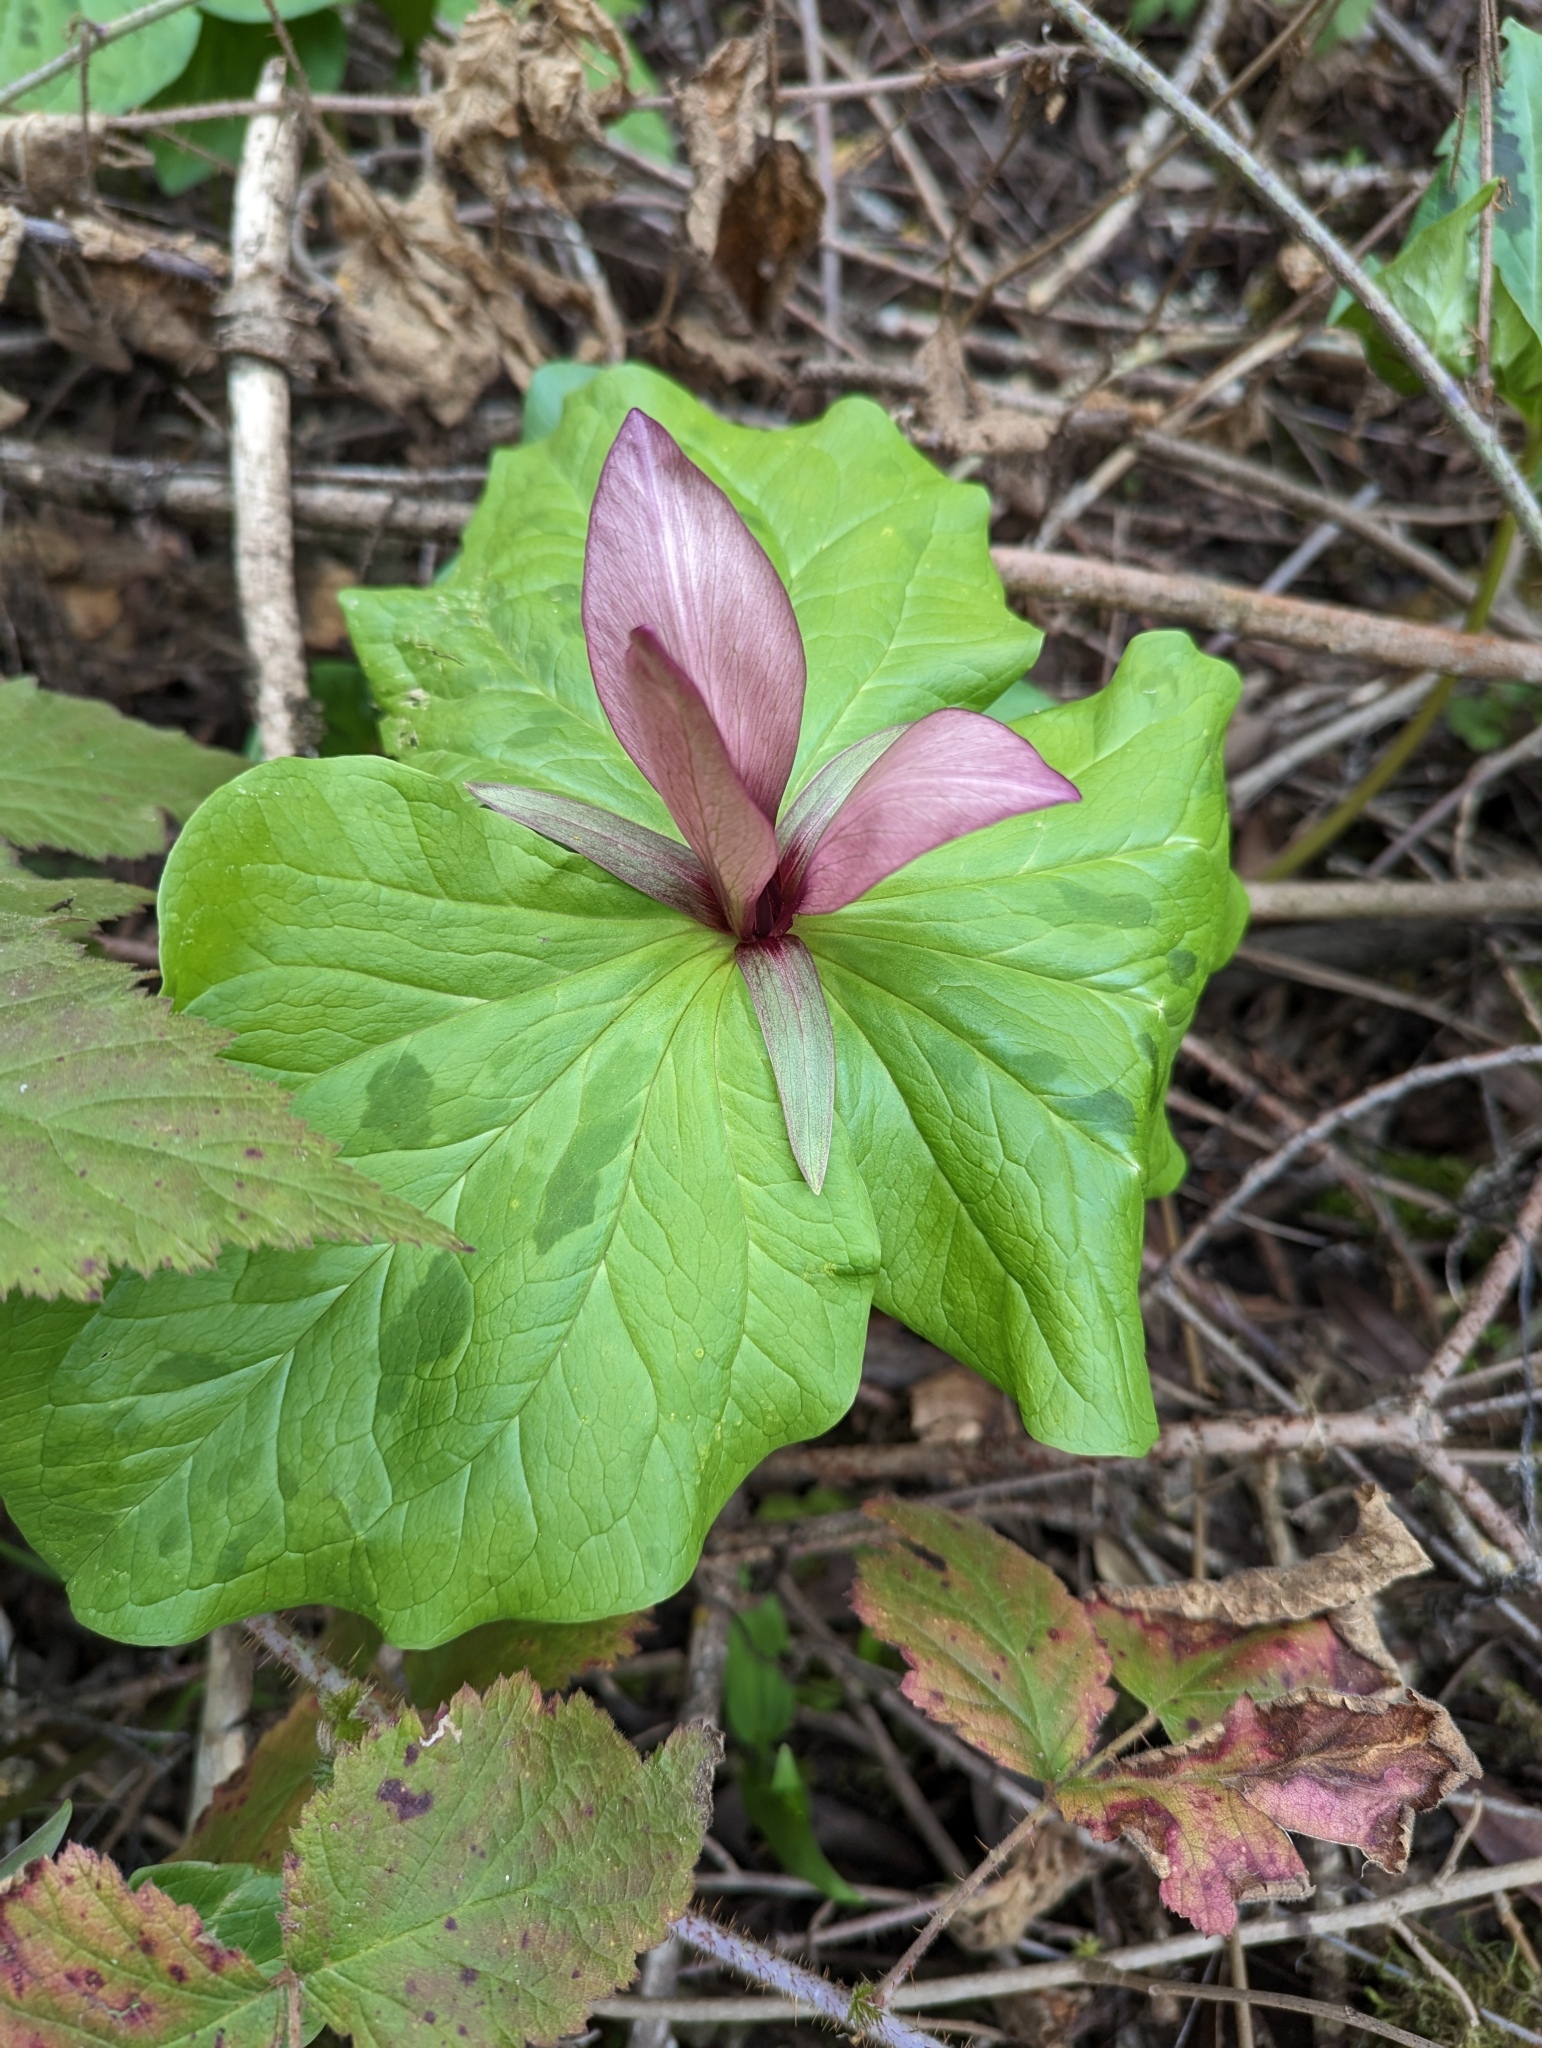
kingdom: Plantae
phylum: Tracheophyta
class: Liliopsida
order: Liliales
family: Melanthiaceae
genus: Trillium
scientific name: Trillium chloropetalum
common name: Giant trillium
